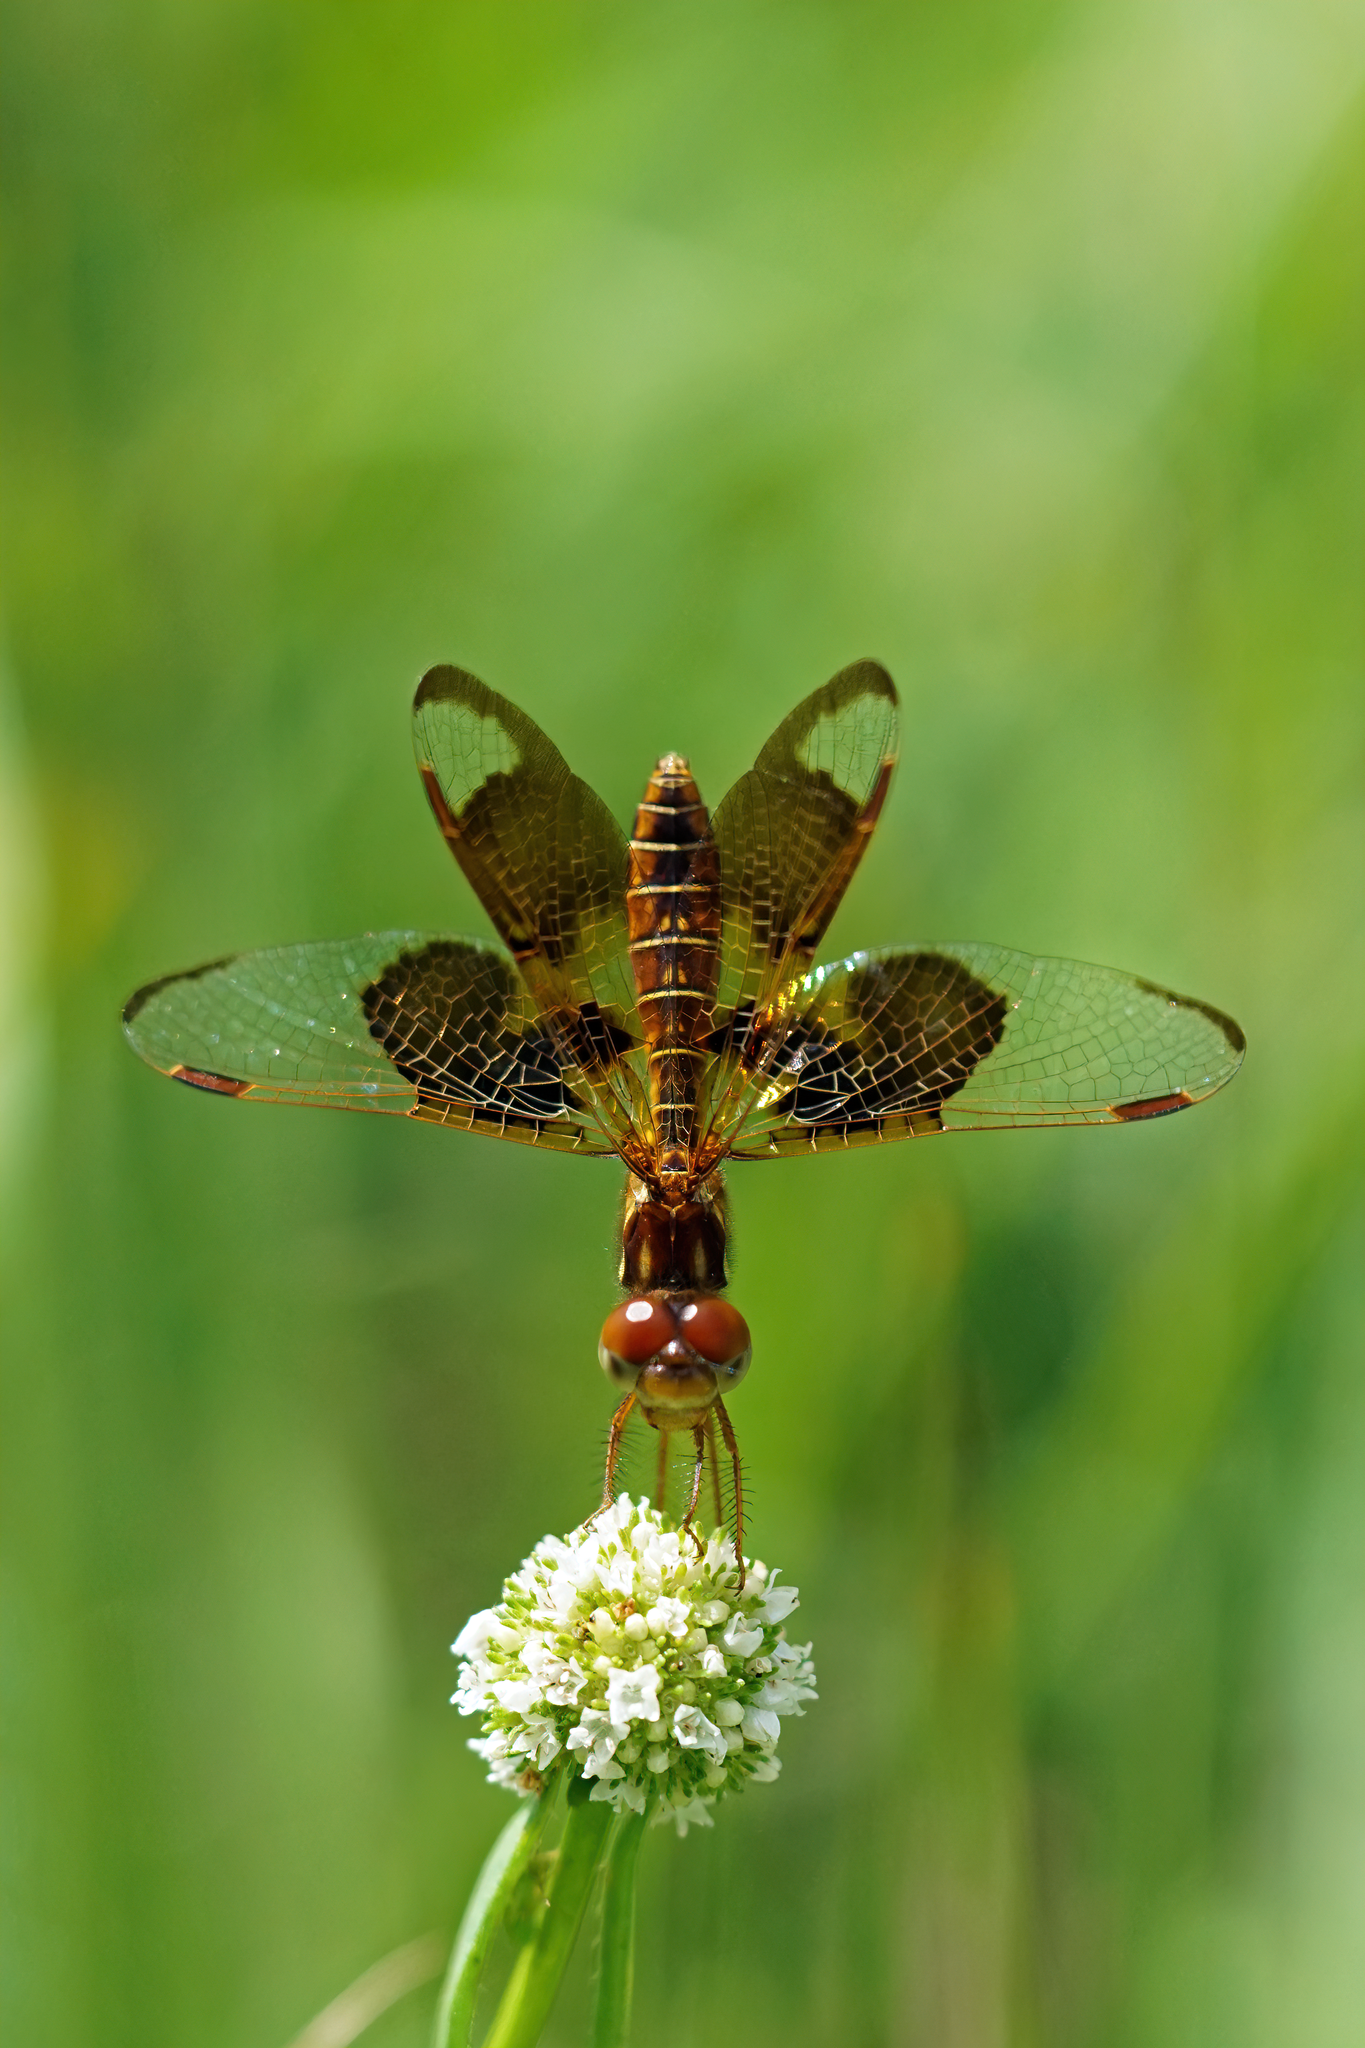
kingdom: Animalia
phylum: Arthropoda
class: Insecta
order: Odonata
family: Libellulidae
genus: Perithemis
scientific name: Perithemis tenera
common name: Eastern amberwing
